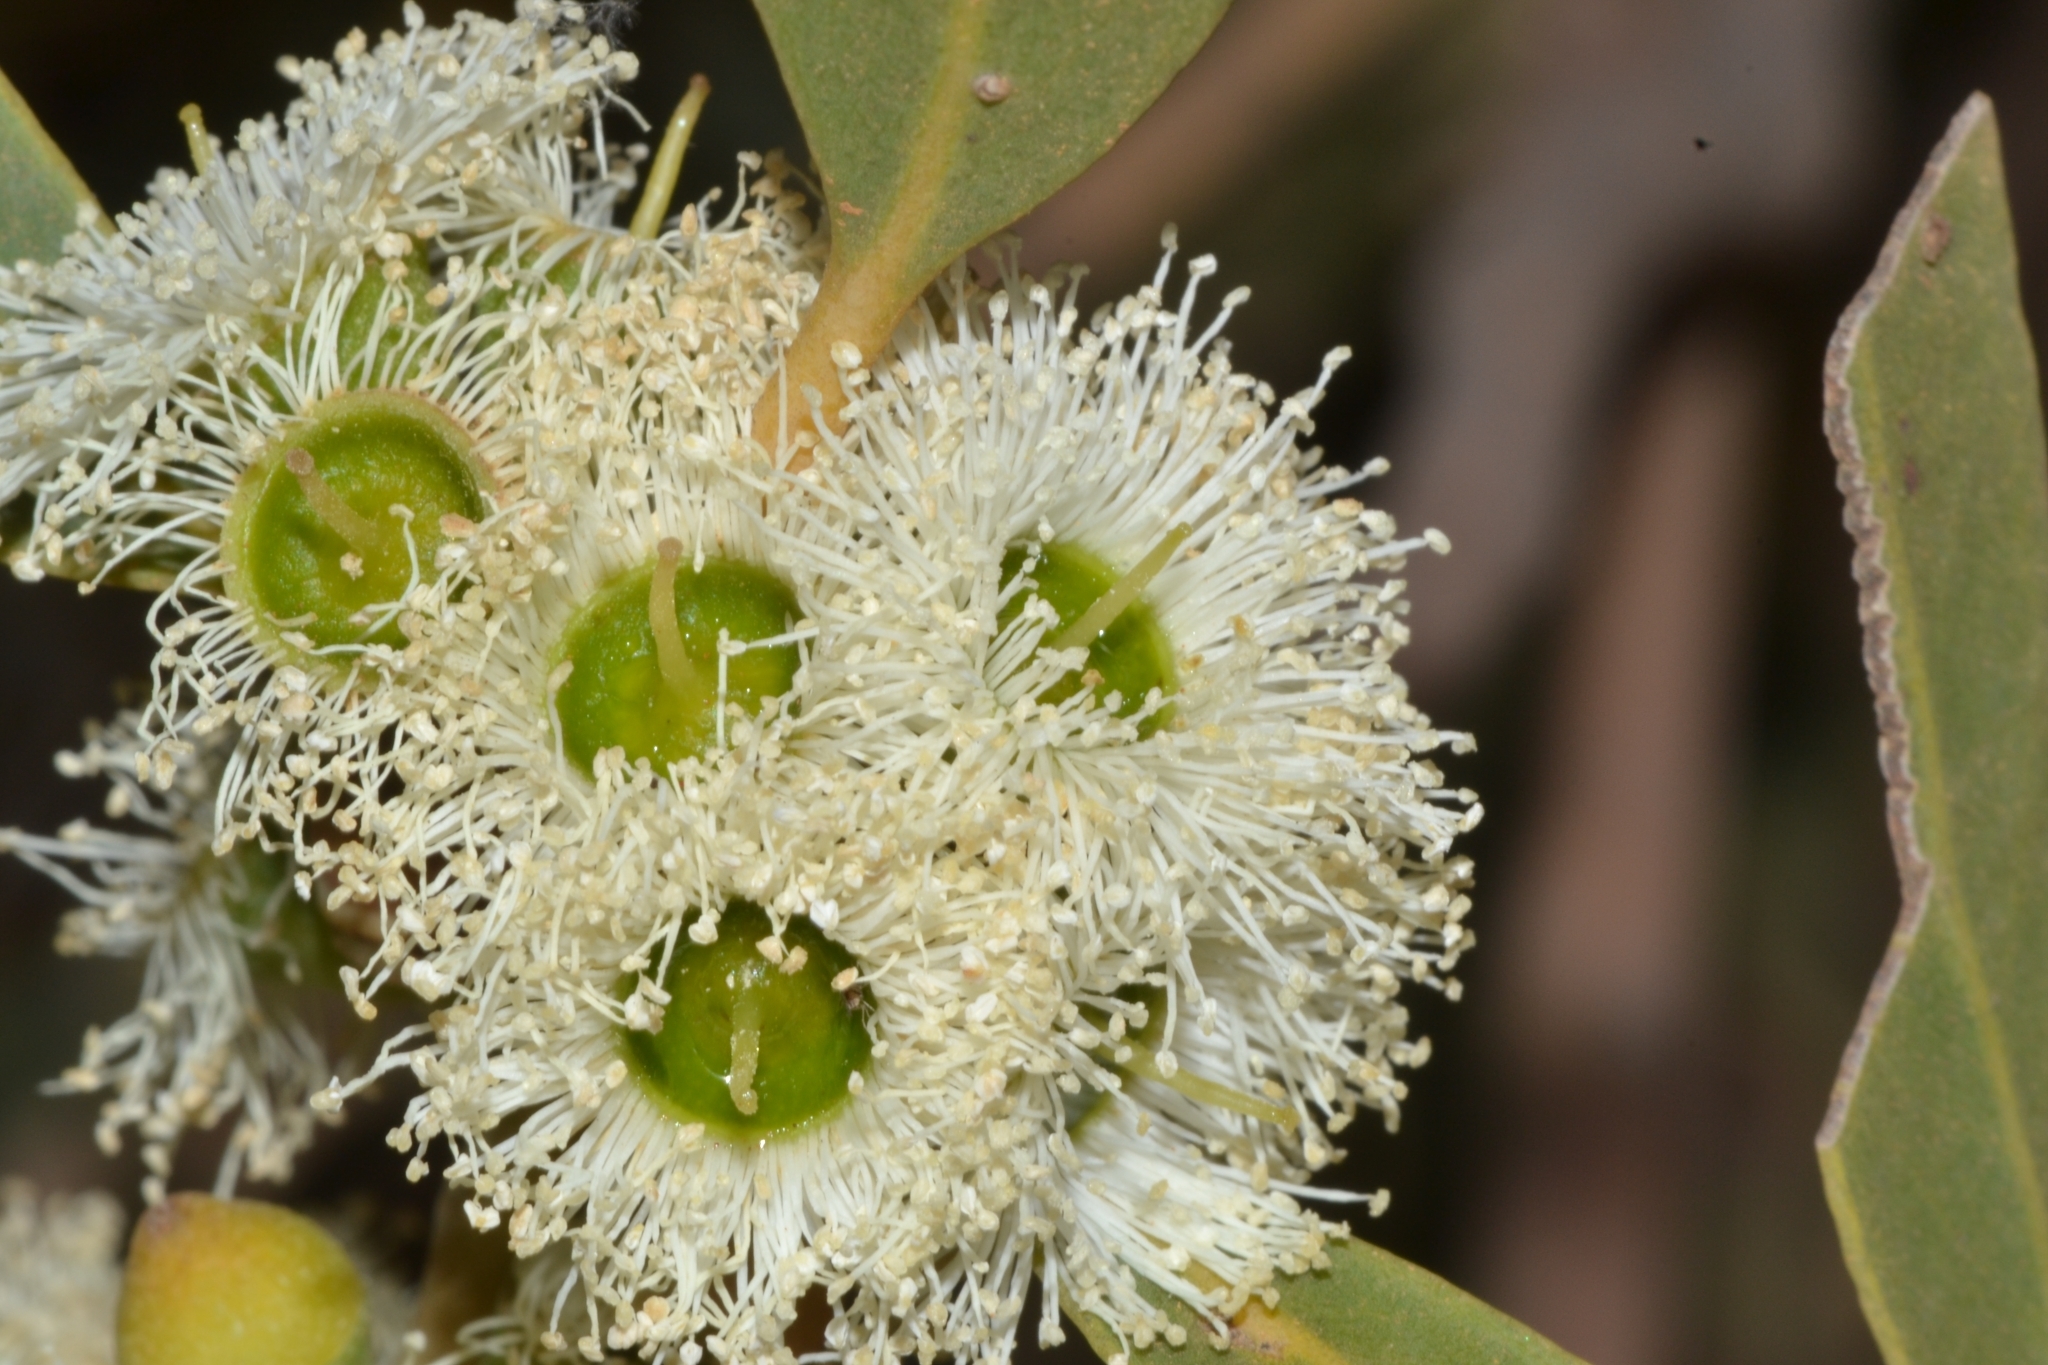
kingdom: Plantae
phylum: Tracheophyta
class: Magnoliopsida
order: Myrtales
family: Myrtaceae
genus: Eucalyptus
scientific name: Eucalyptus todtiana
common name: Coastal blackbutt
